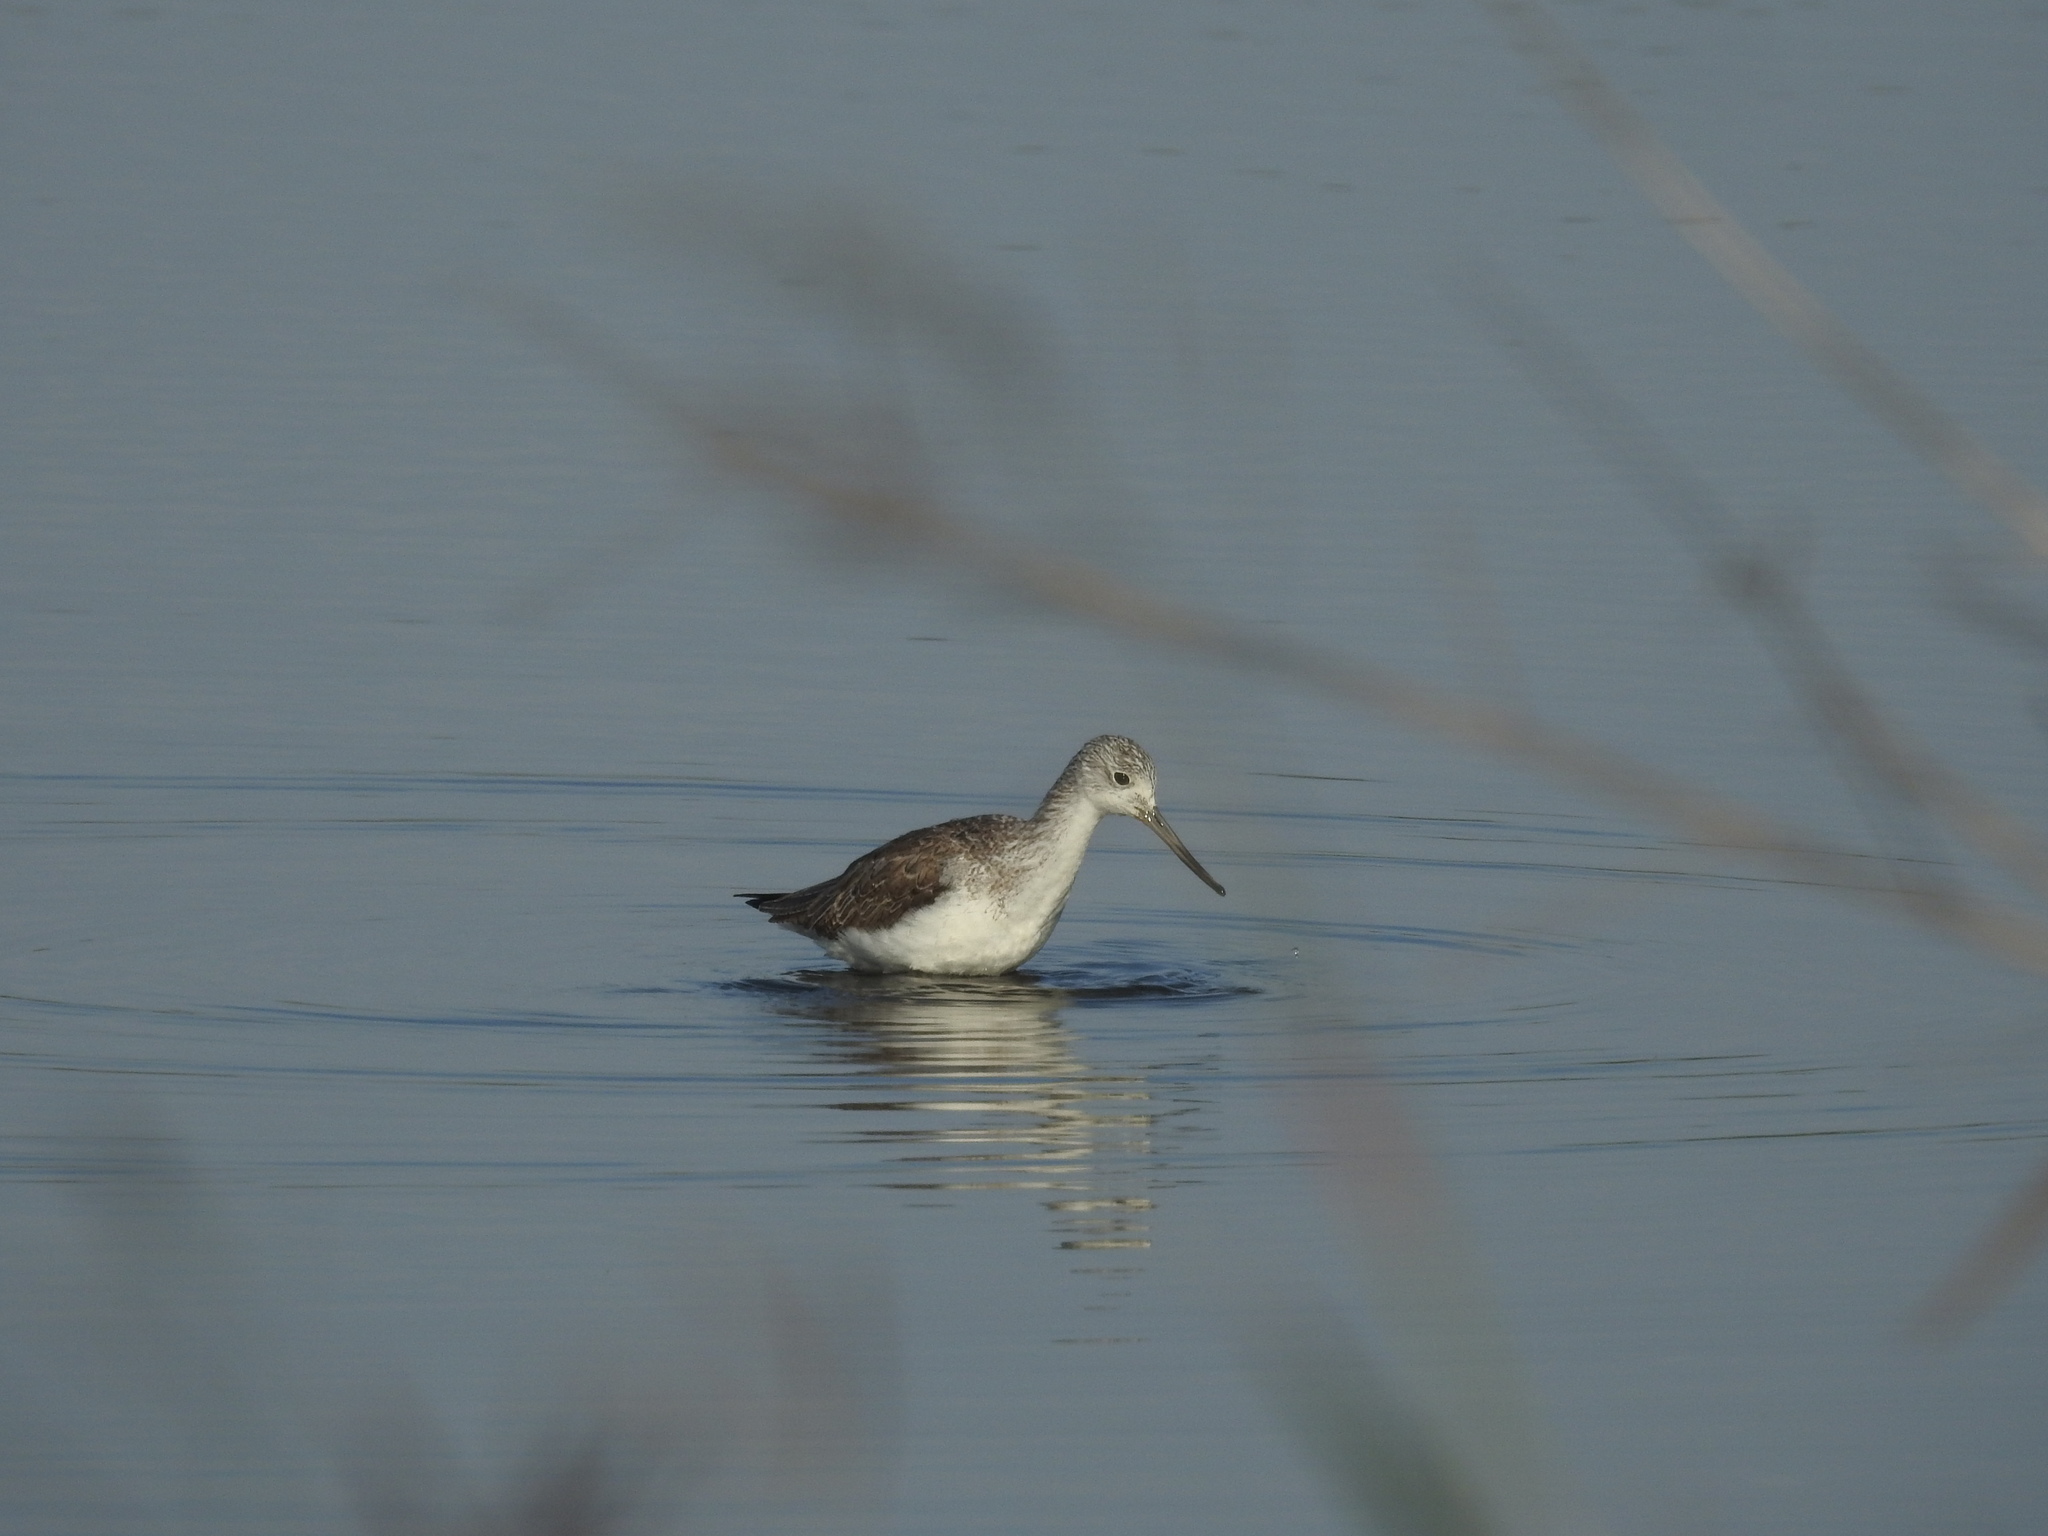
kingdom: Animalia
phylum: Chordata
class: Aves
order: Charadriiformes
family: Scolopacidae
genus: Tringa
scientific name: Tringa nebularia
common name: Common greenshank
